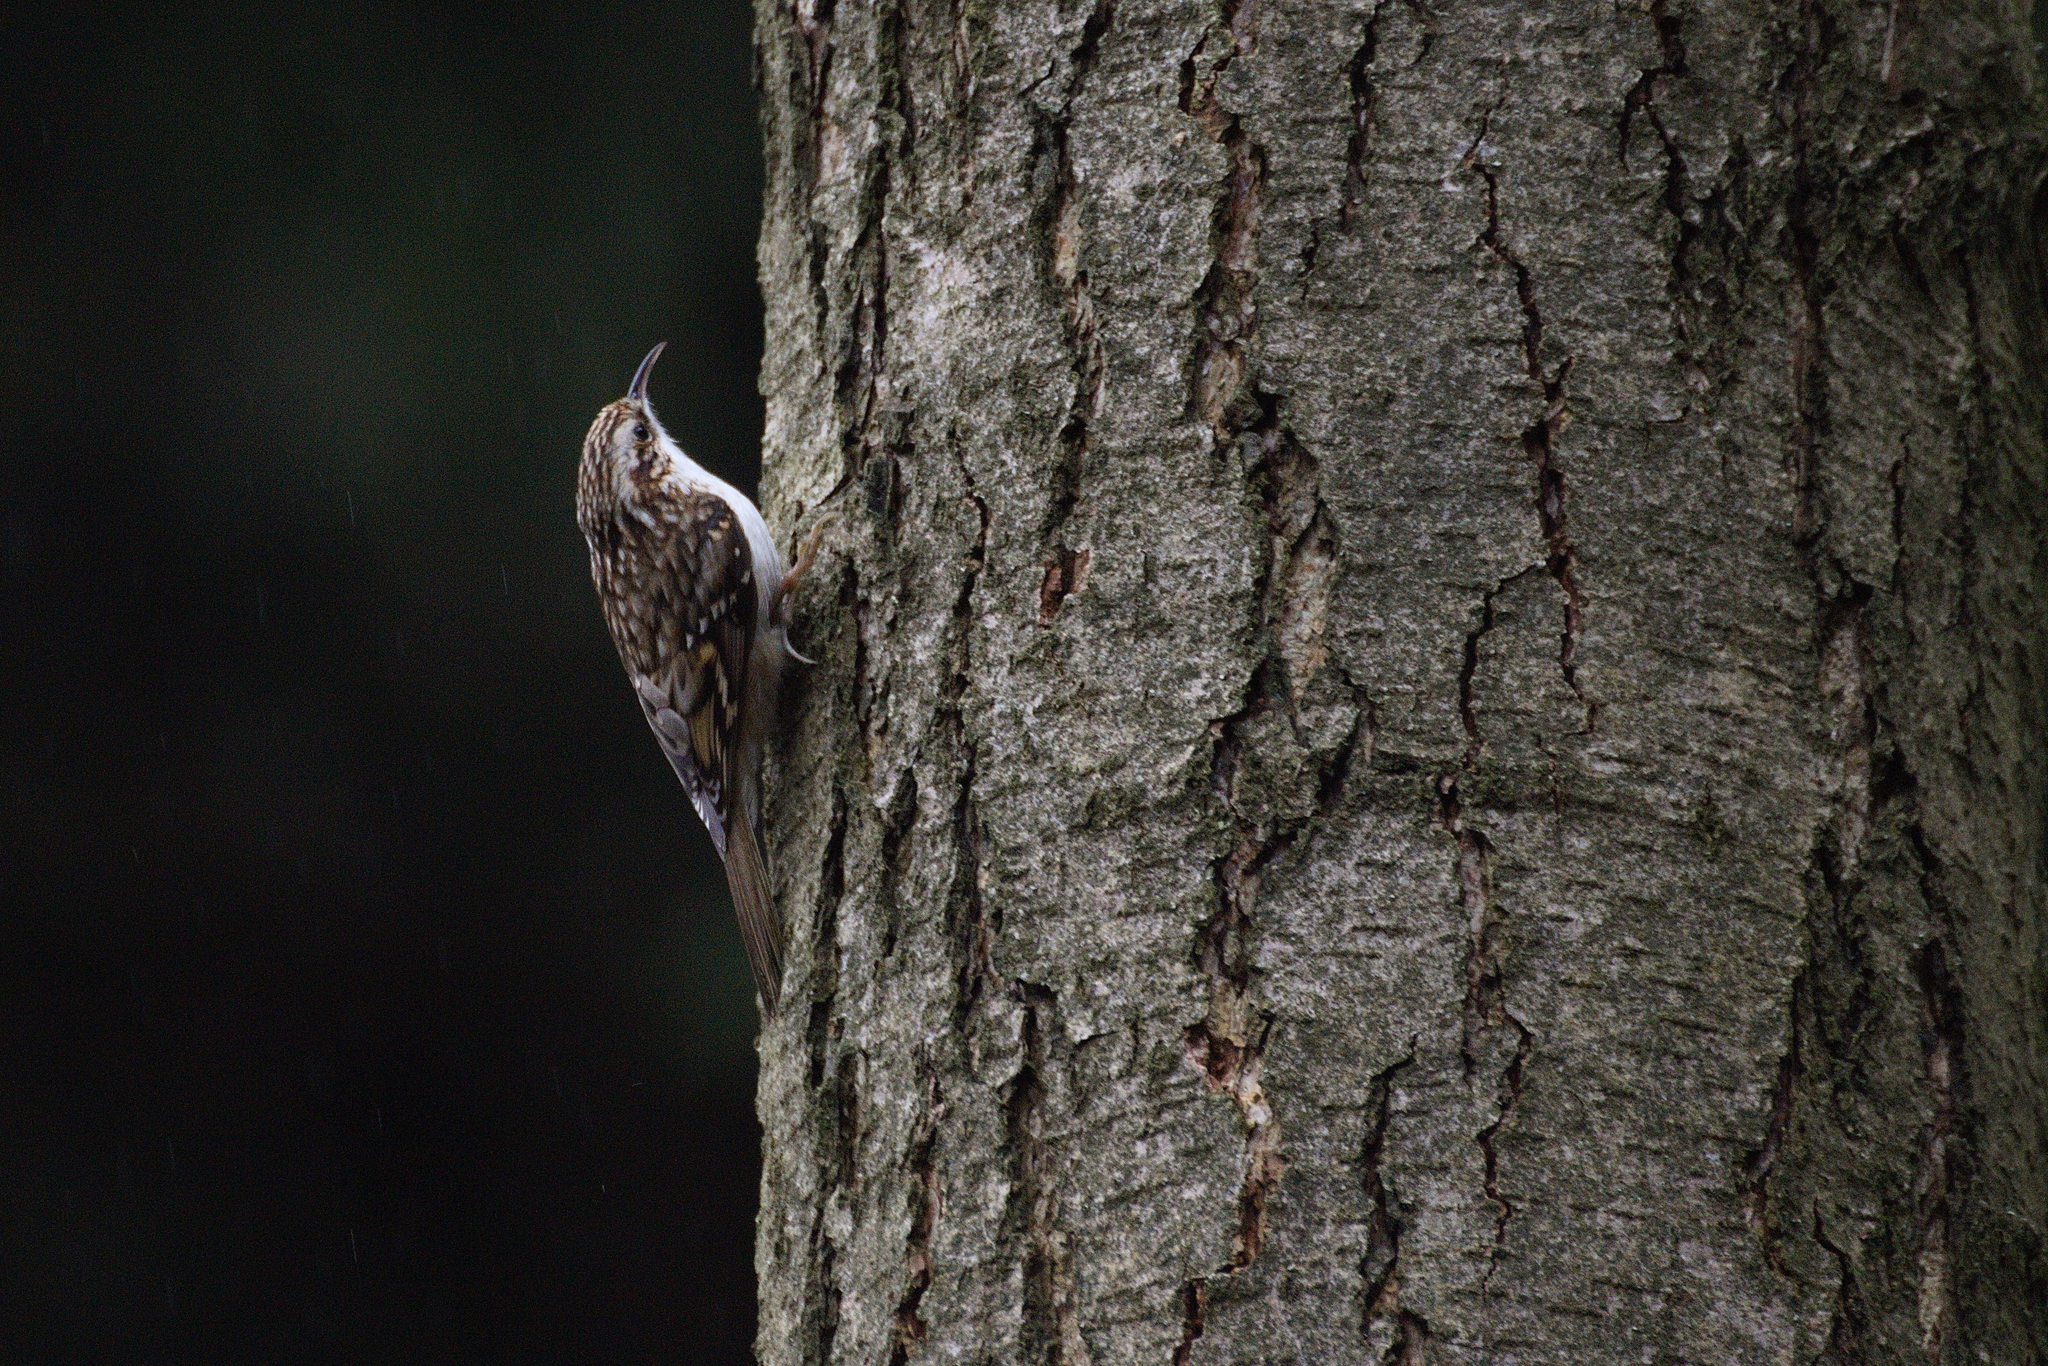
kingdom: Animalia
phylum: Chordata
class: Aves
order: Passeriformes
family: Certhiidae
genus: Certhia
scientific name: Certhia familiaris
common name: Eurasian treecreeper
